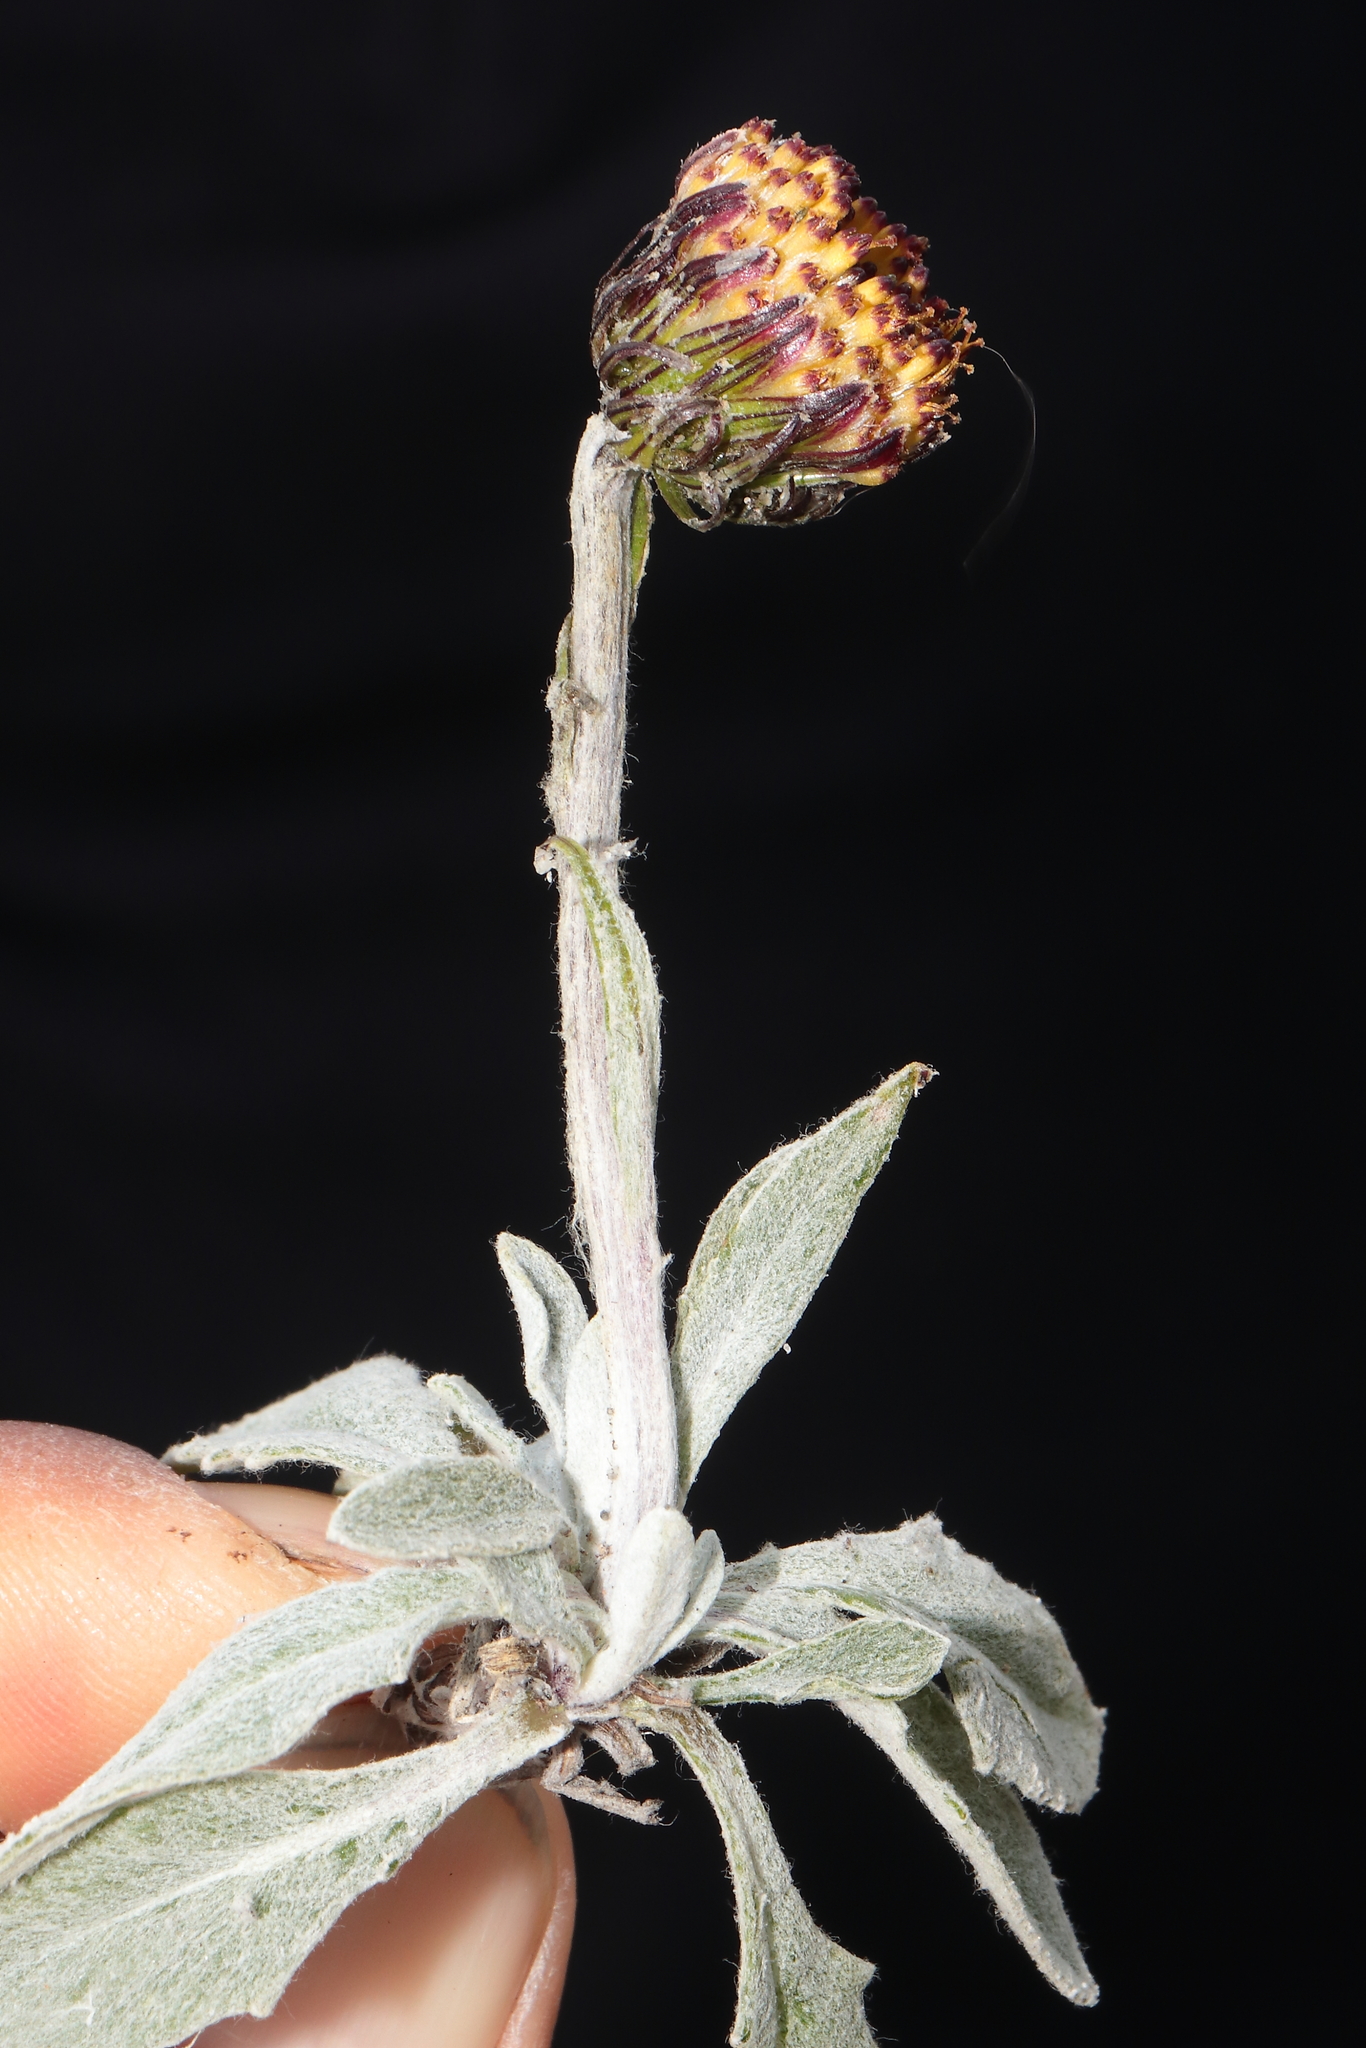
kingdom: Plantae
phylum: Tracheophyta
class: Magnoliopsida
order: Asterales
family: Asteraceae
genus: Culcitium
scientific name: Culcitium humile
